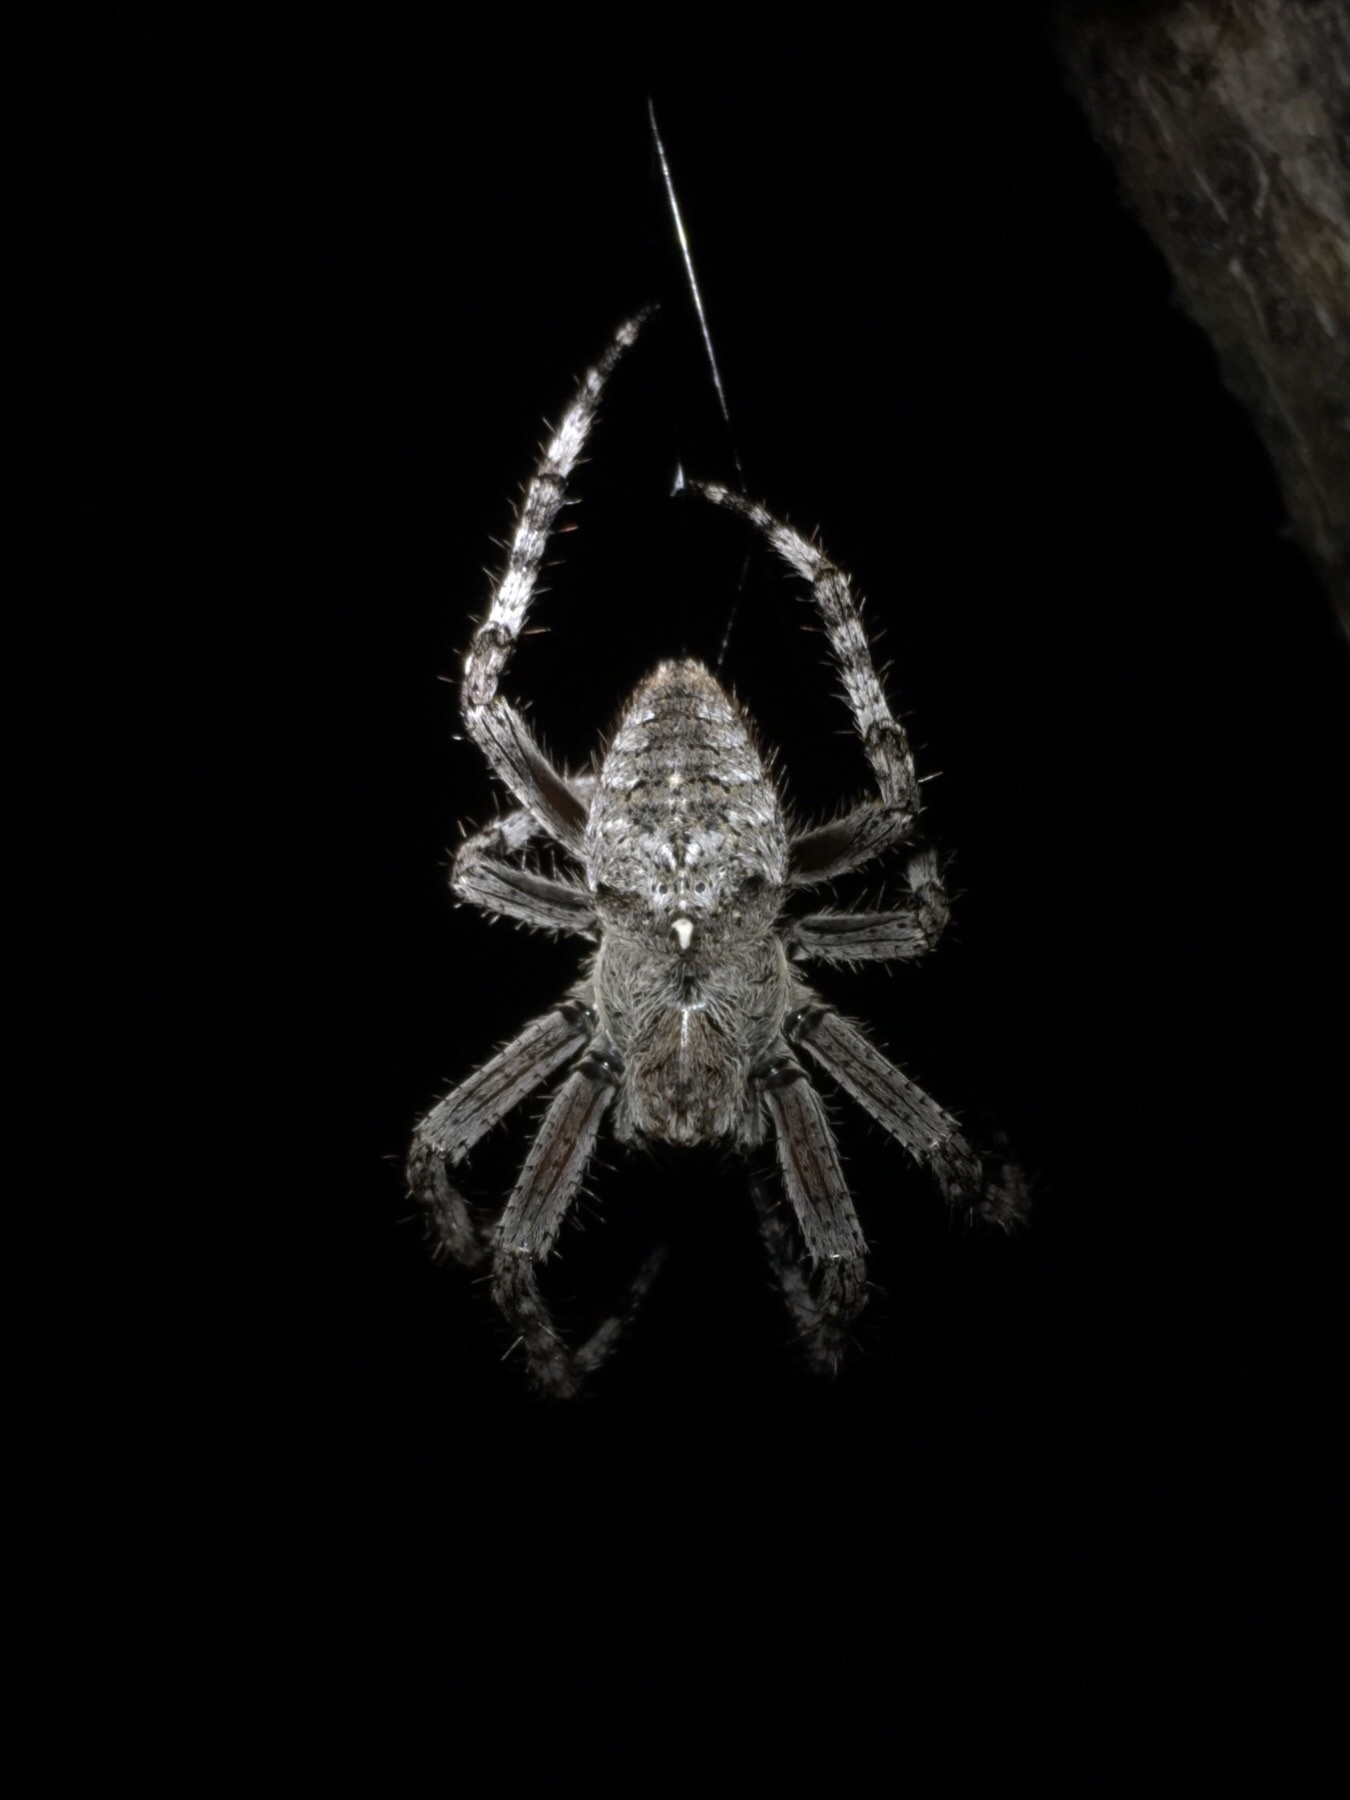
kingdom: Animalia
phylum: Arthropoda
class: Arachnida
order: Araneae
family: Araneidae
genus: Araneus
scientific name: Araneus saevus
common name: Fierce orbweaver
